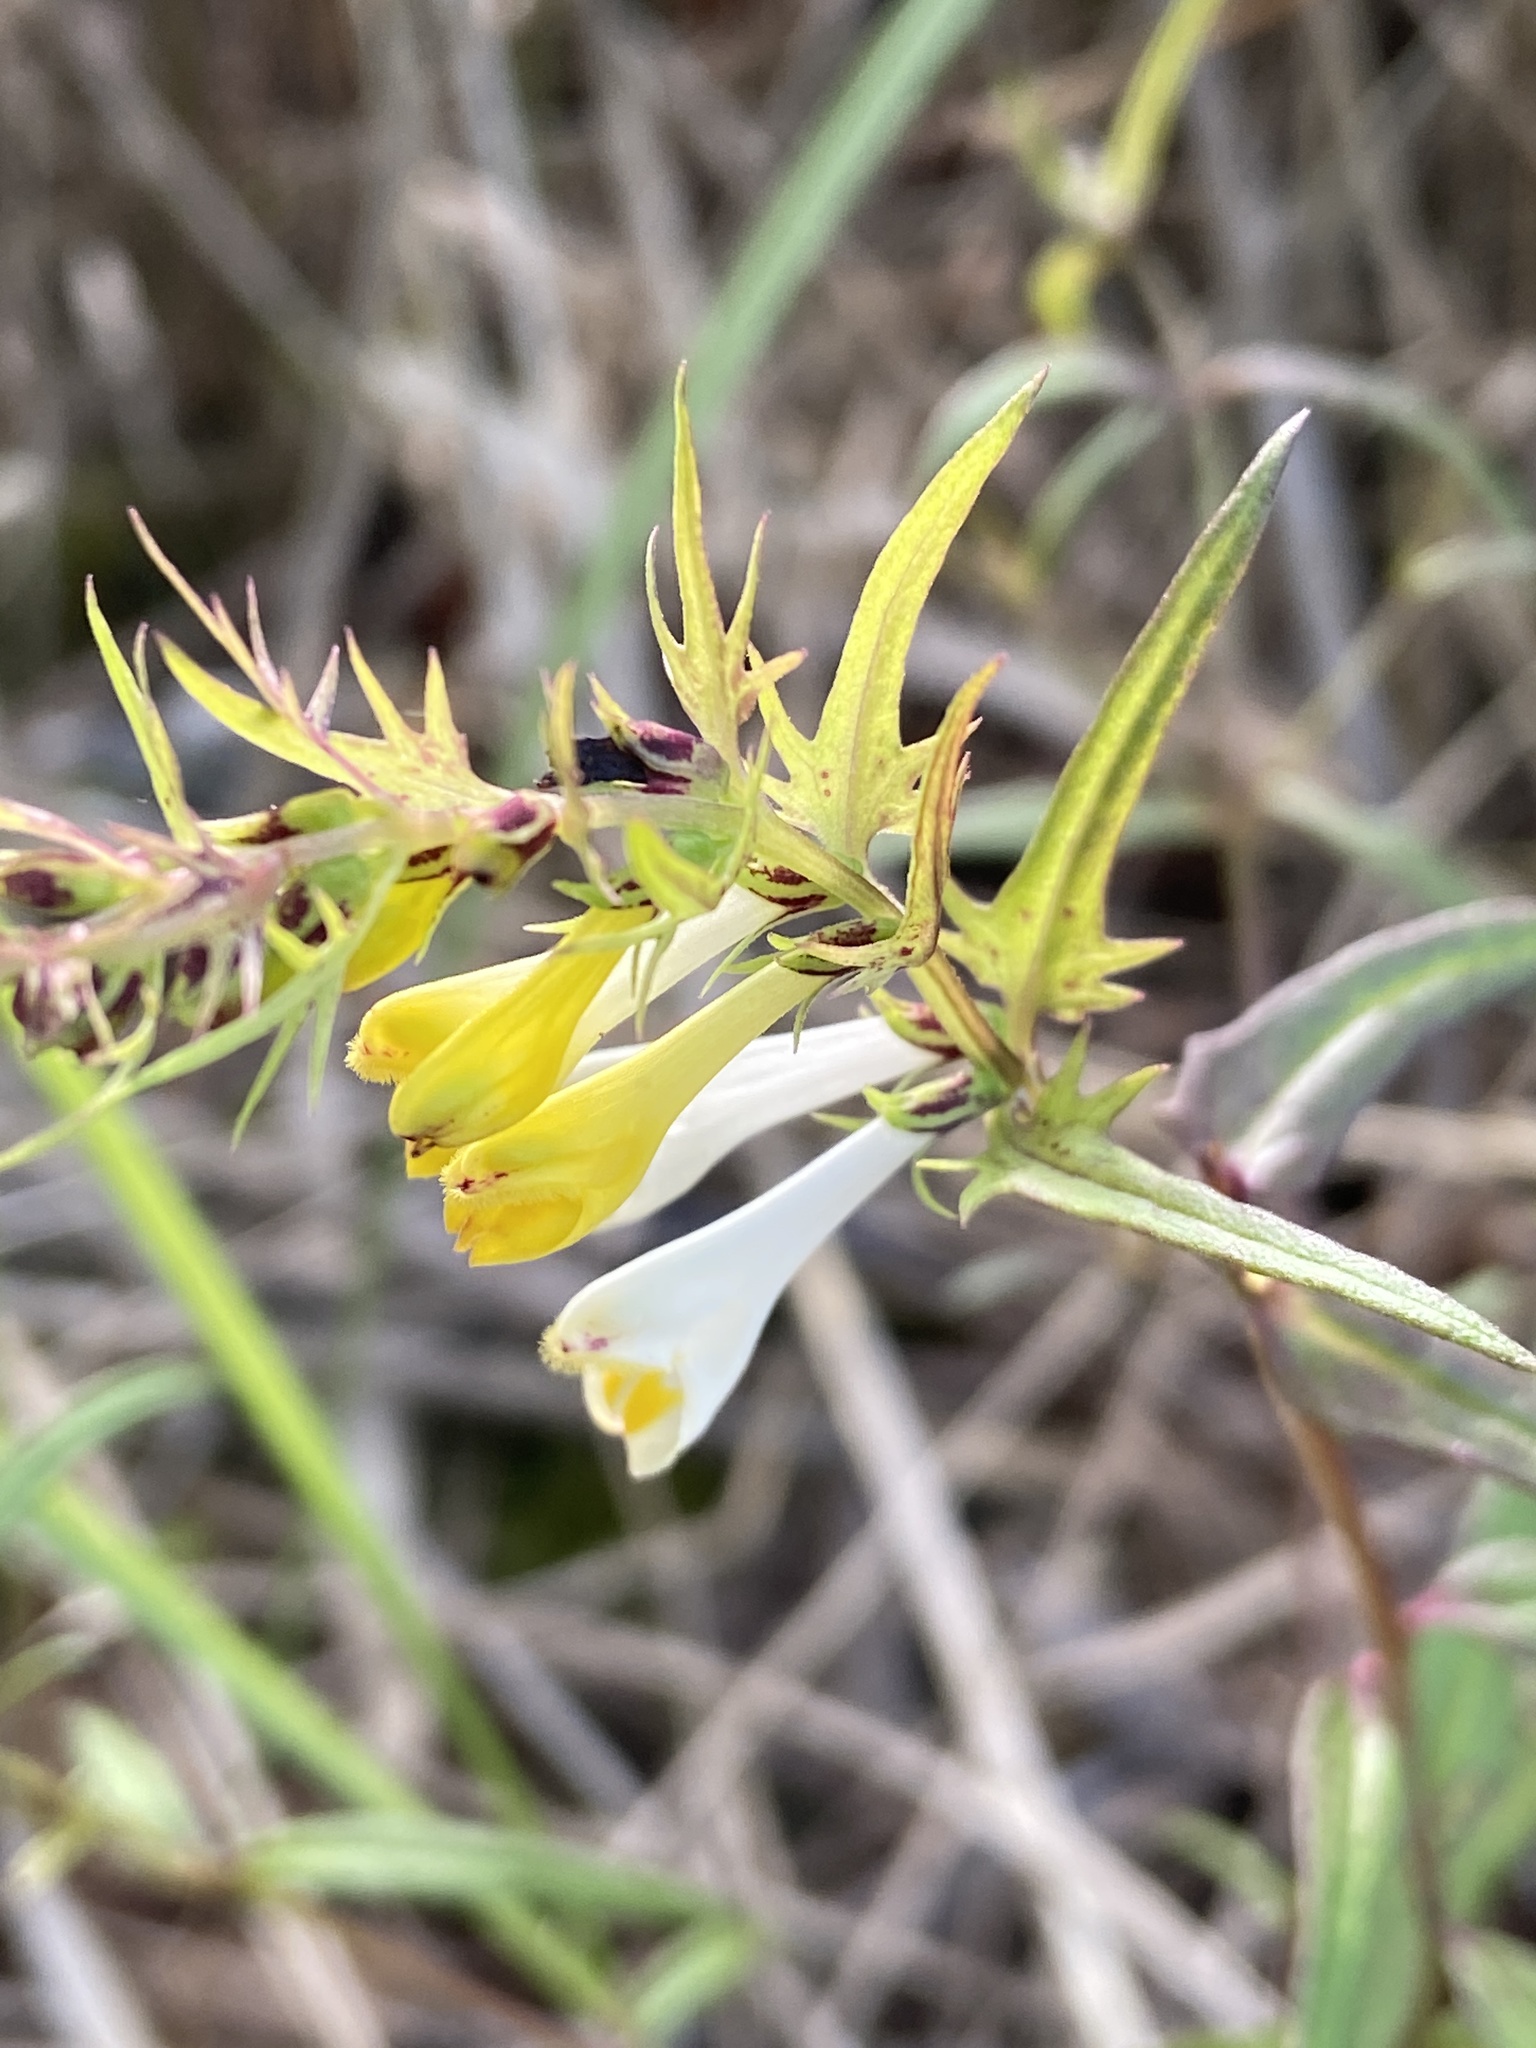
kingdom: Plantae
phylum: Tracheophyta
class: Magnoliopsida
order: Lamiales
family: Orobanchaceae
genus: Melampyrum
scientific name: Melampyrum pratense
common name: Common cow-wheat
